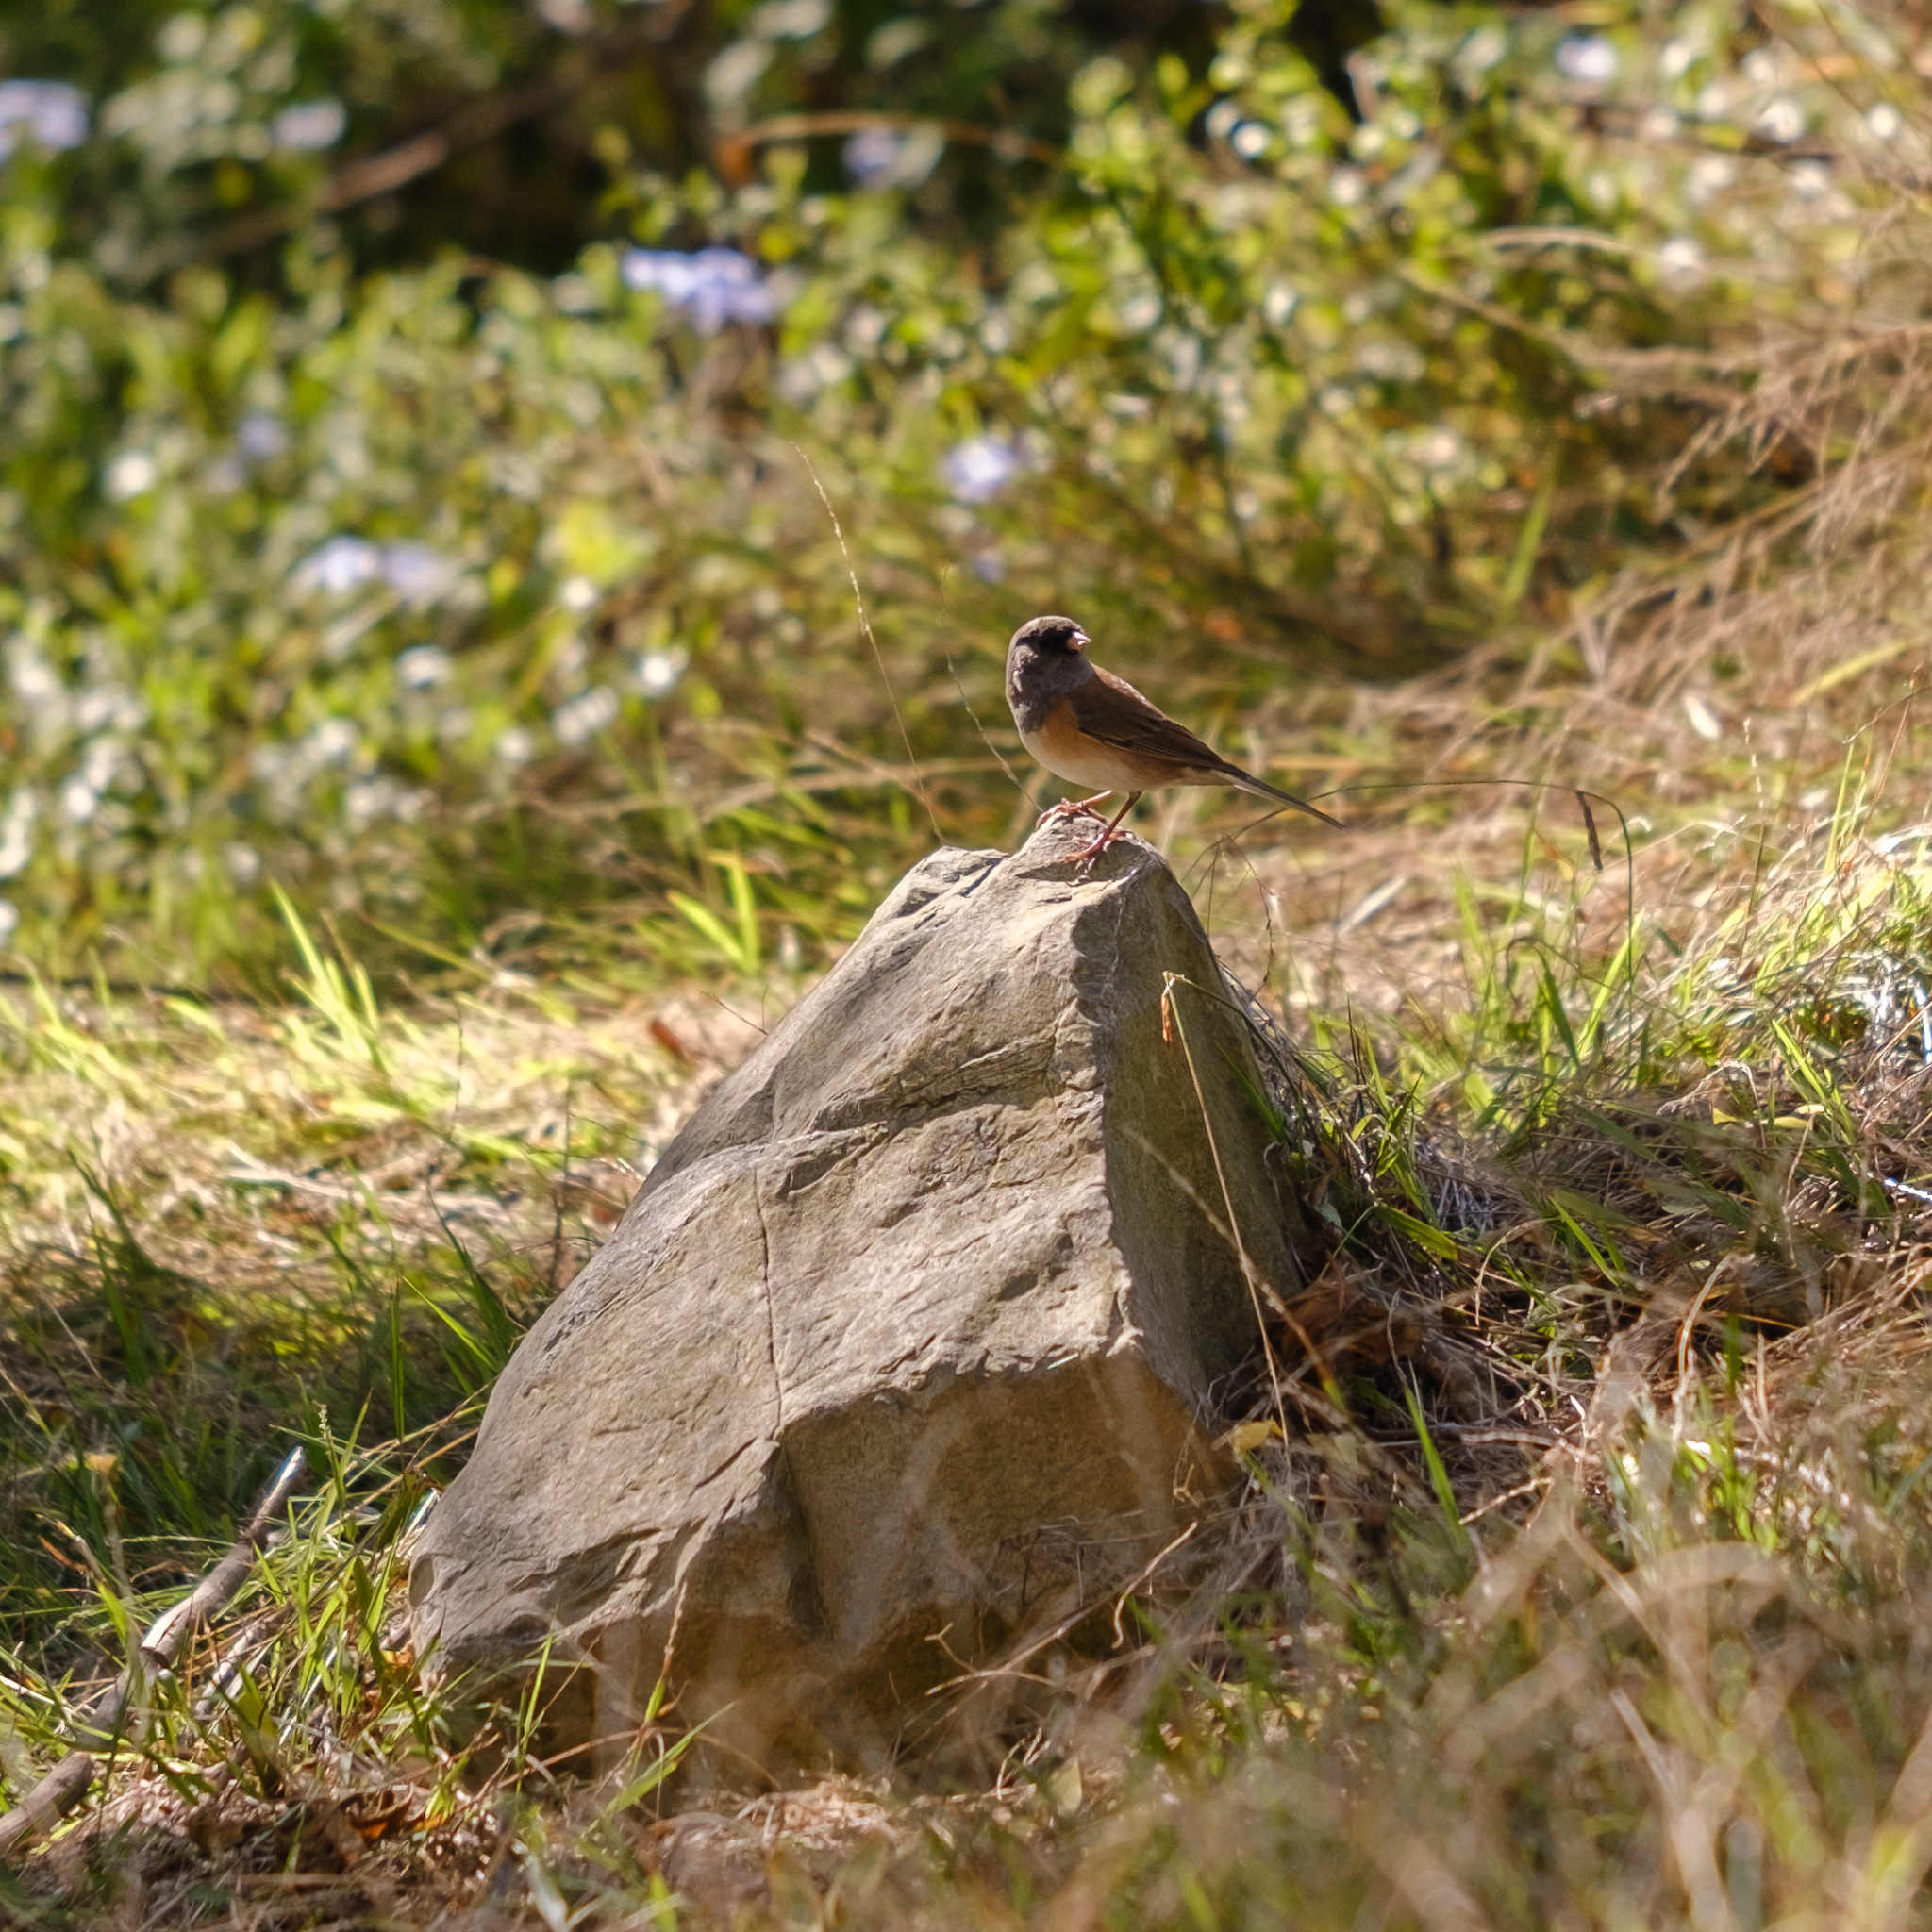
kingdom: Animalia
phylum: Chordata
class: Aves
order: Passeriformes
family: Passerellidae
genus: Junco
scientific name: Junco hyemalis
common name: Dark-eyed junco
